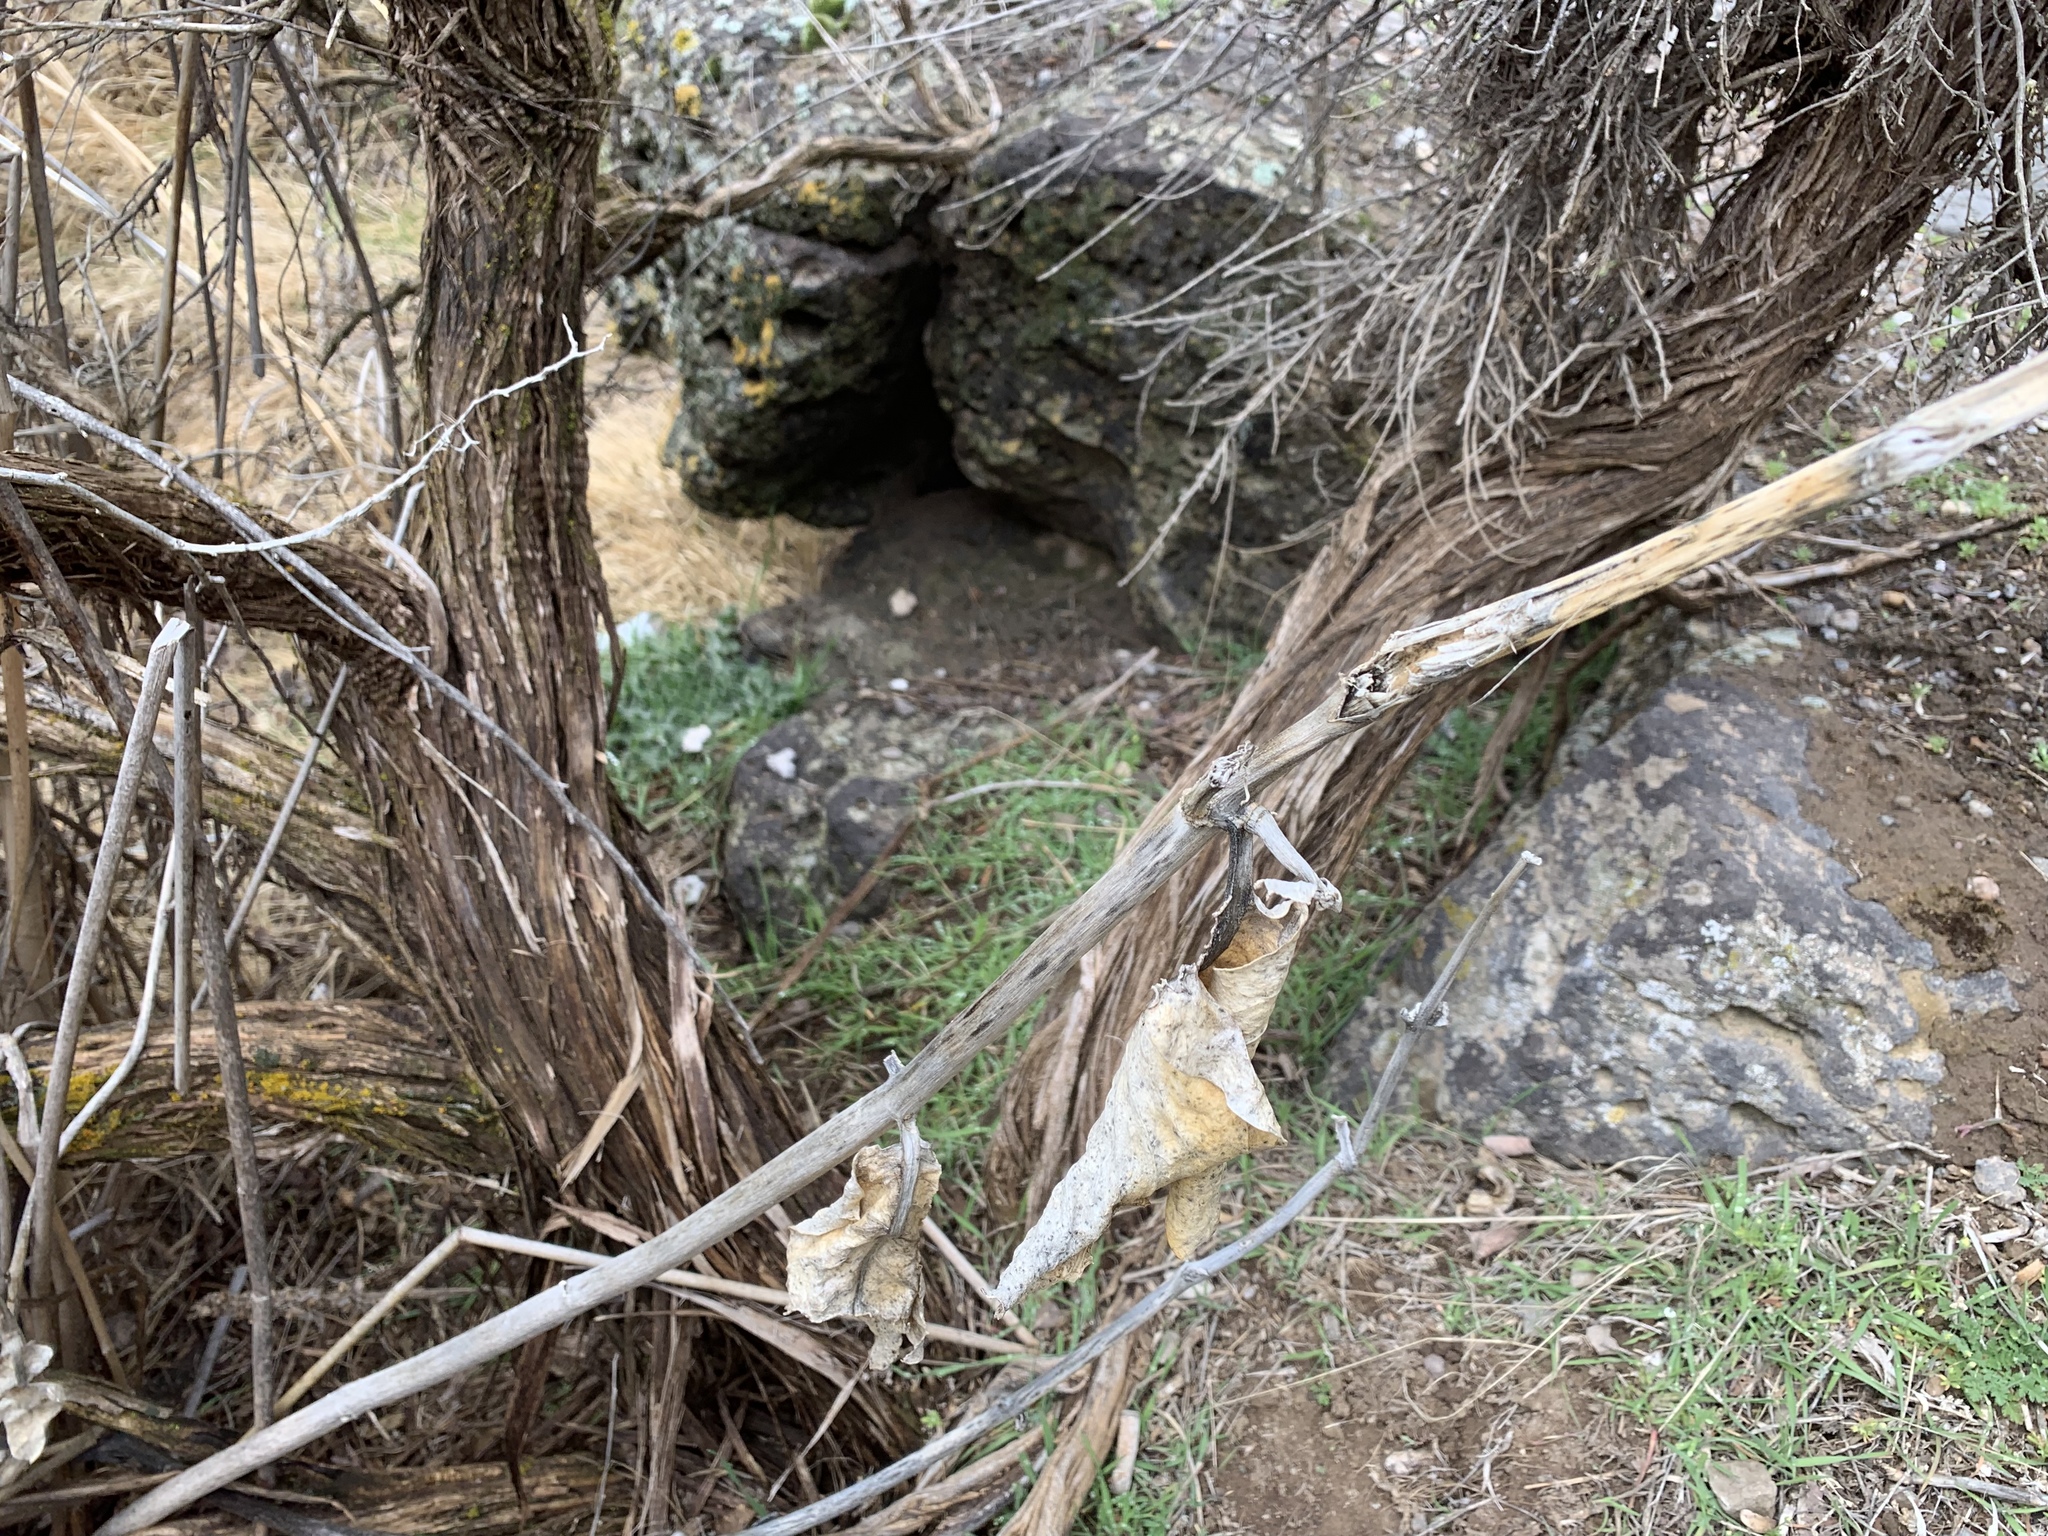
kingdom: Plantae
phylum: Tracheophyta
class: Magnoliopsida
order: Gentianales
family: Apocynaceae
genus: Asclepias
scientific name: Asclepias speciosa
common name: Showy milkweed
